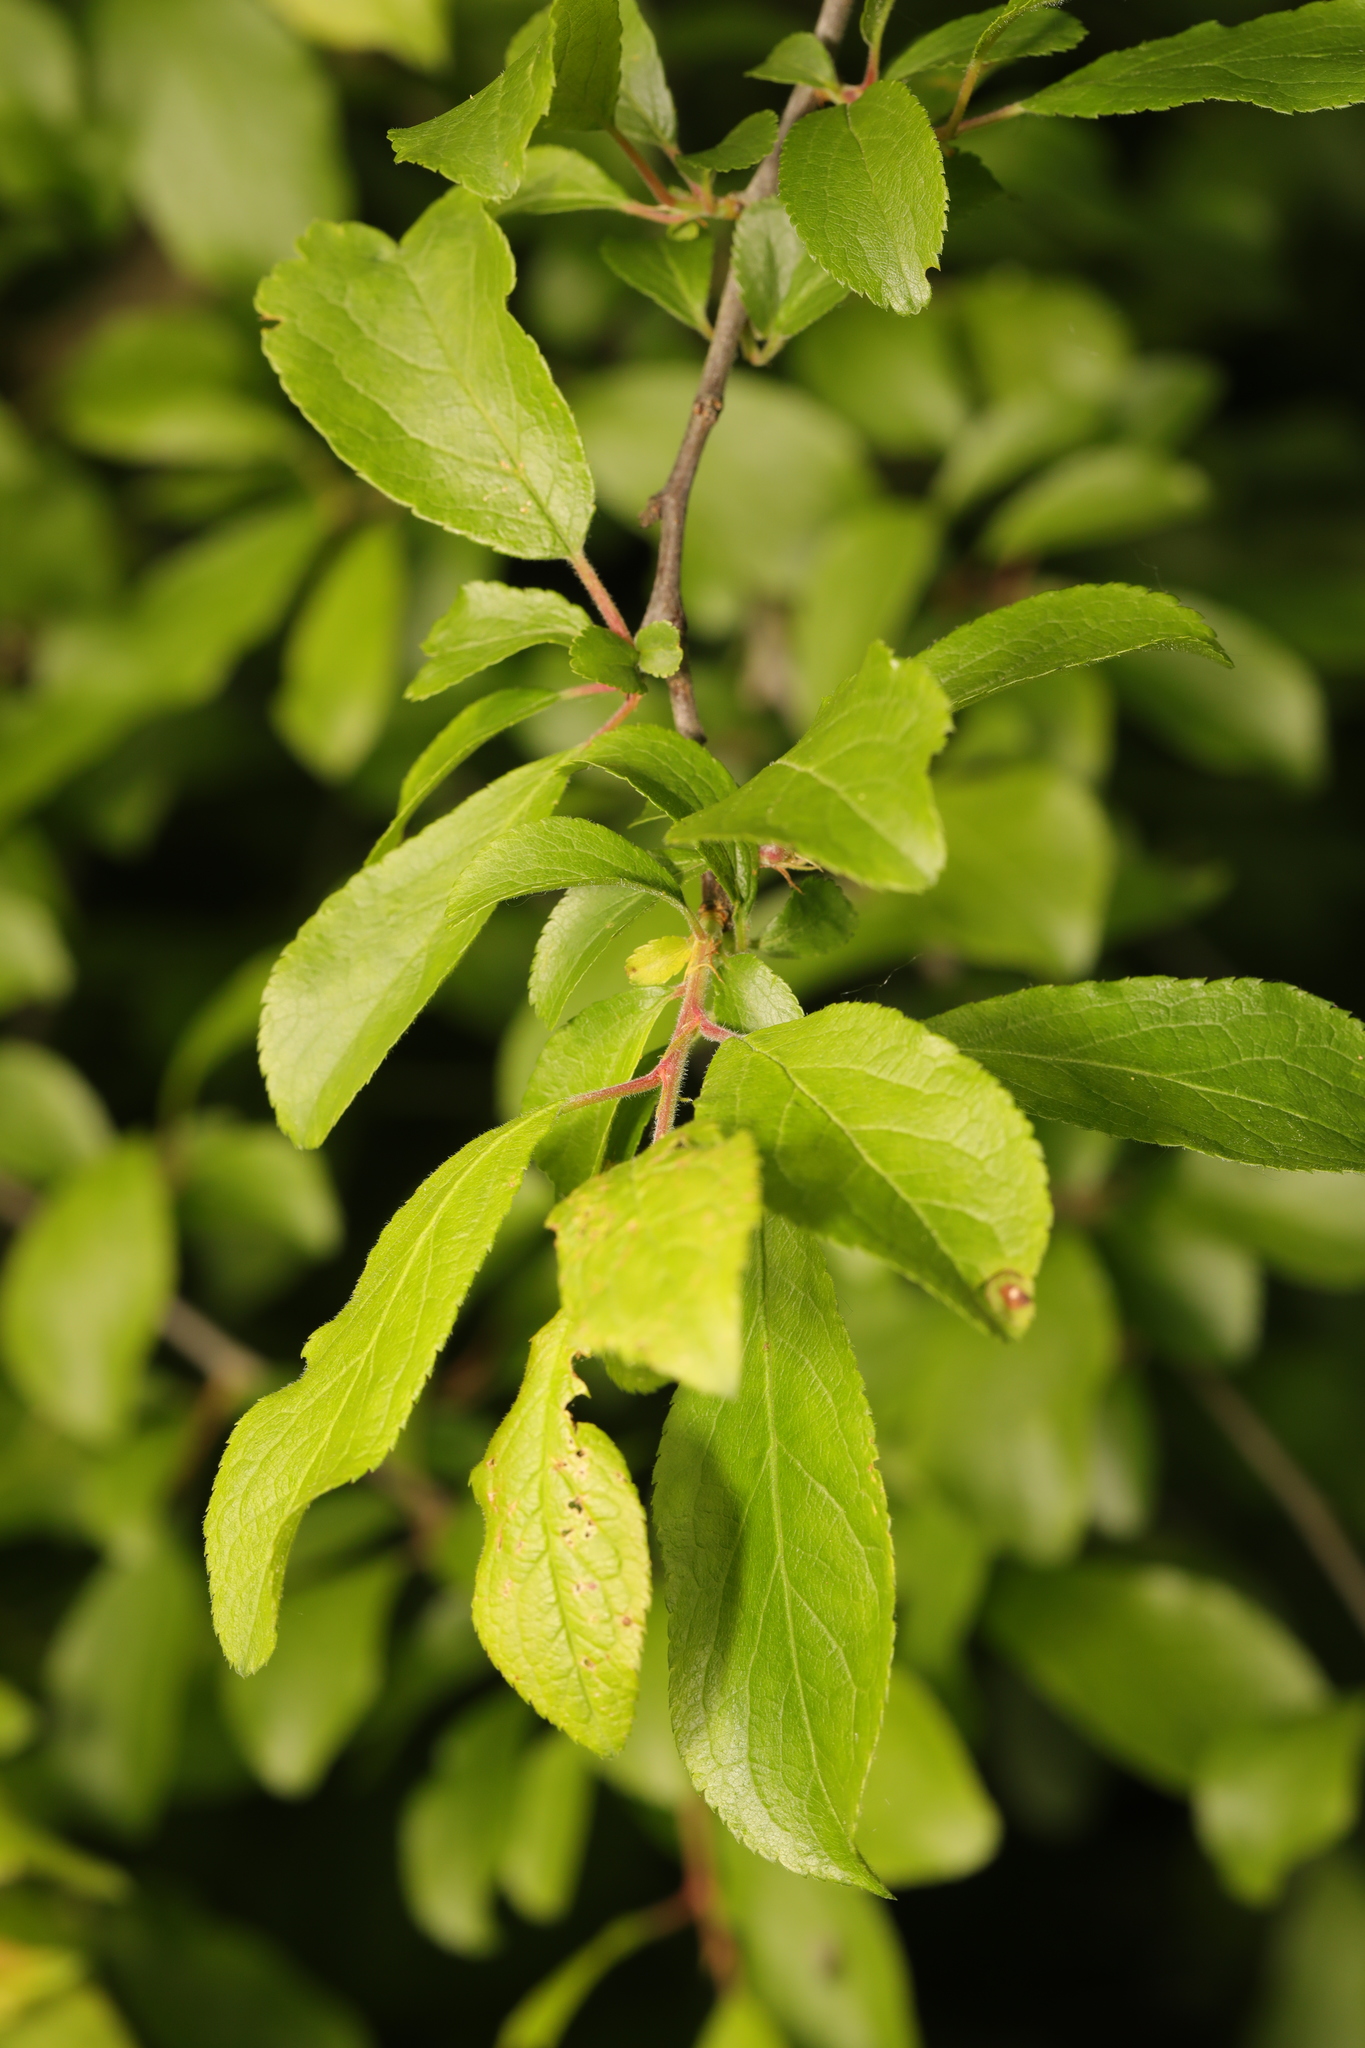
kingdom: Plantae
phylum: Tracheophyta
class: Magnoliopsida
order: Rosales
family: Rosaceae
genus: Prunus
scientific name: Prunus spinosa
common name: Blackthorn
